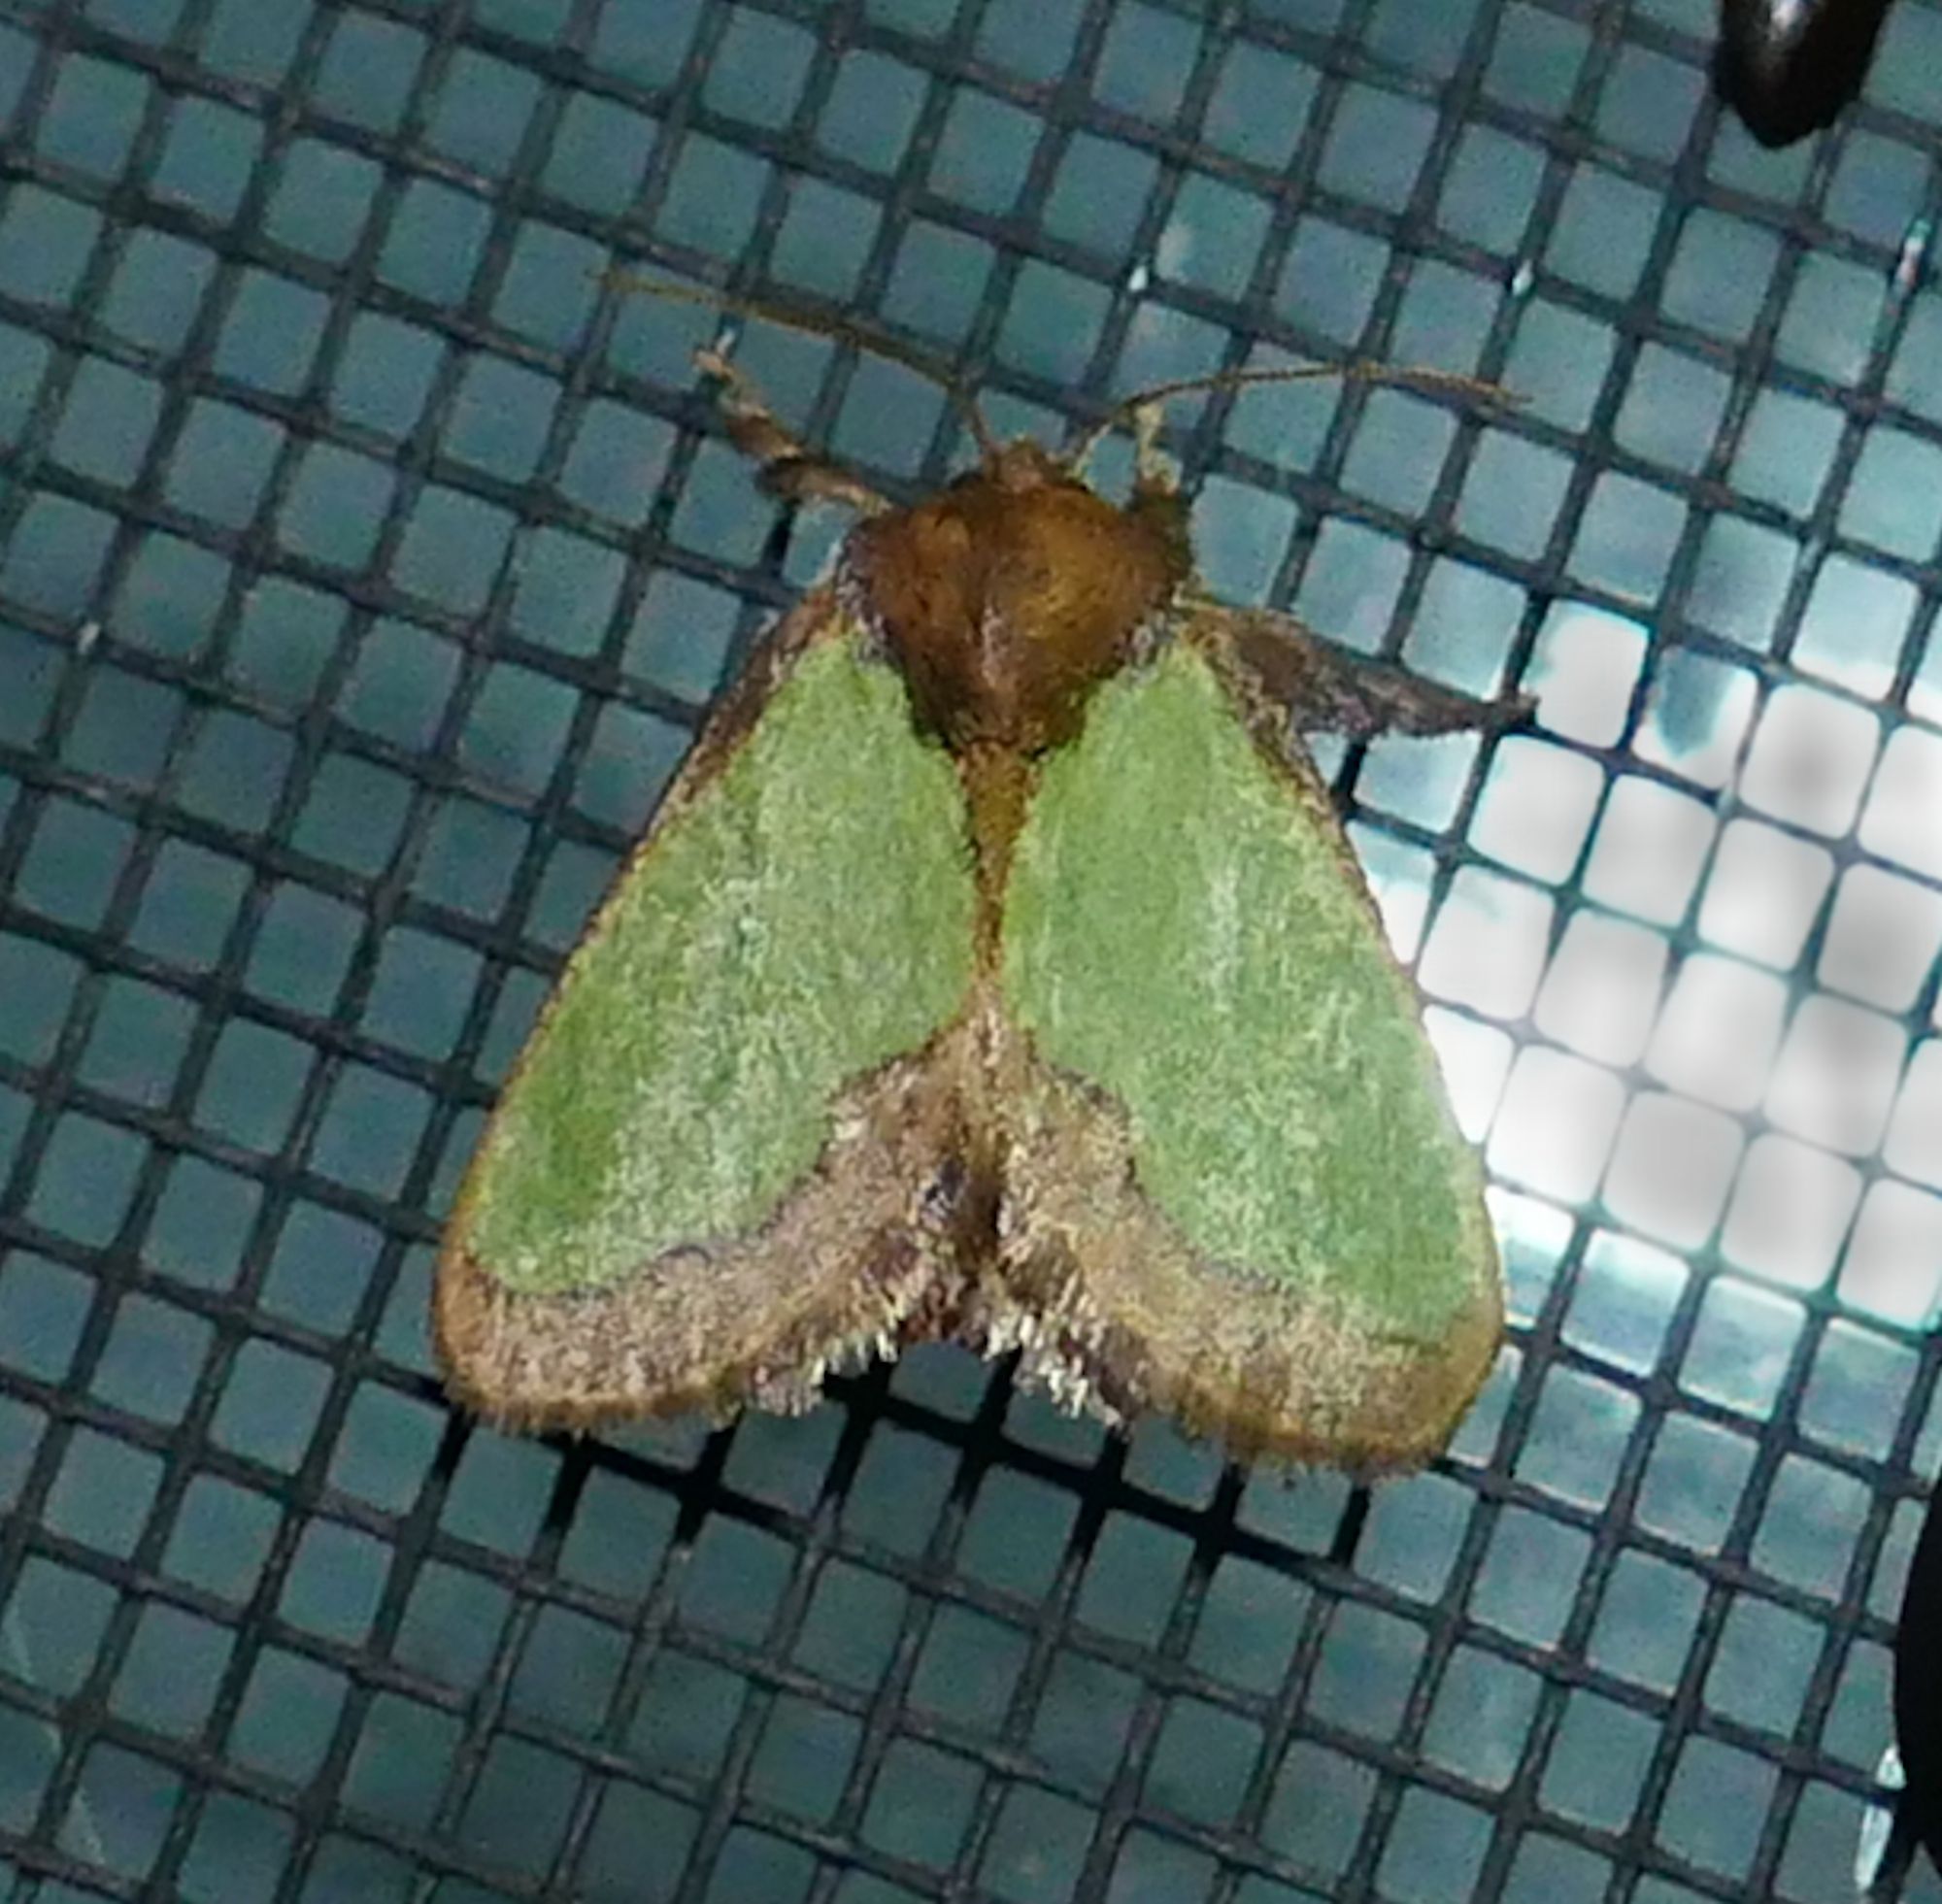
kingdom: Animalia
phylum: Arthropoda
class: Insecta
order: Lepidoptera
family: Limacodidae
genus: Euclea
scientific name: Euclea incisa
